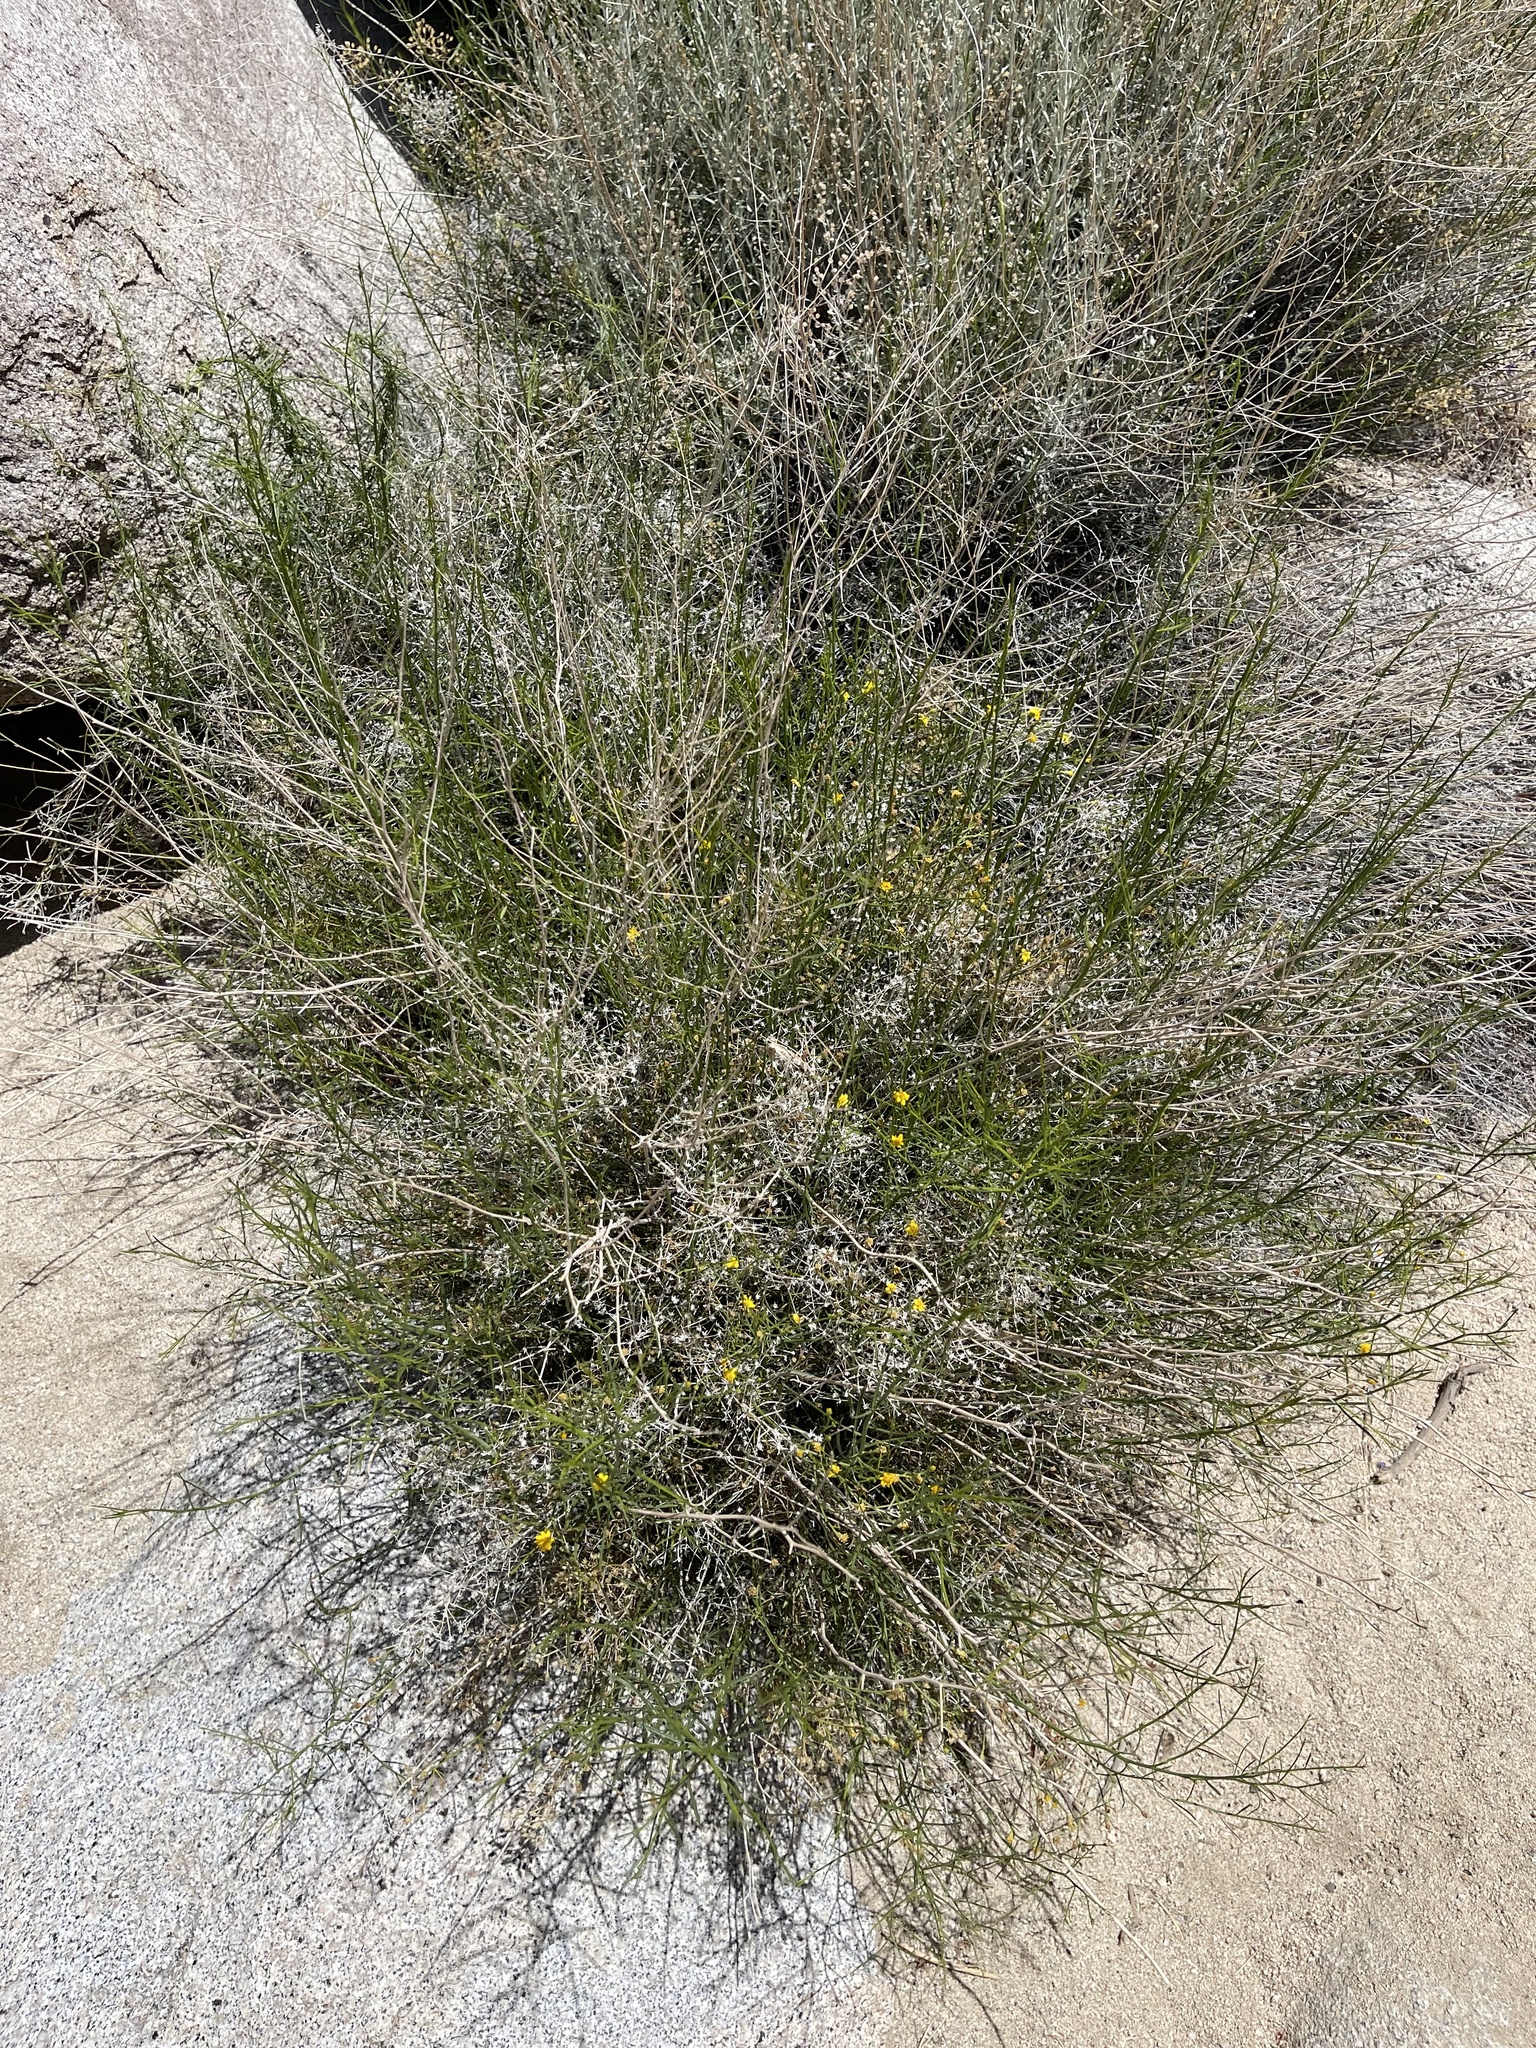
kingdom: Plantae
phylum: Tracheophyta
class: Magnoliopsida
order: Asterales
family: Asteraceae
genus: Gutierrezia
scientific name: Gutierrezia sarothrae
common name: Broom snakeweed
